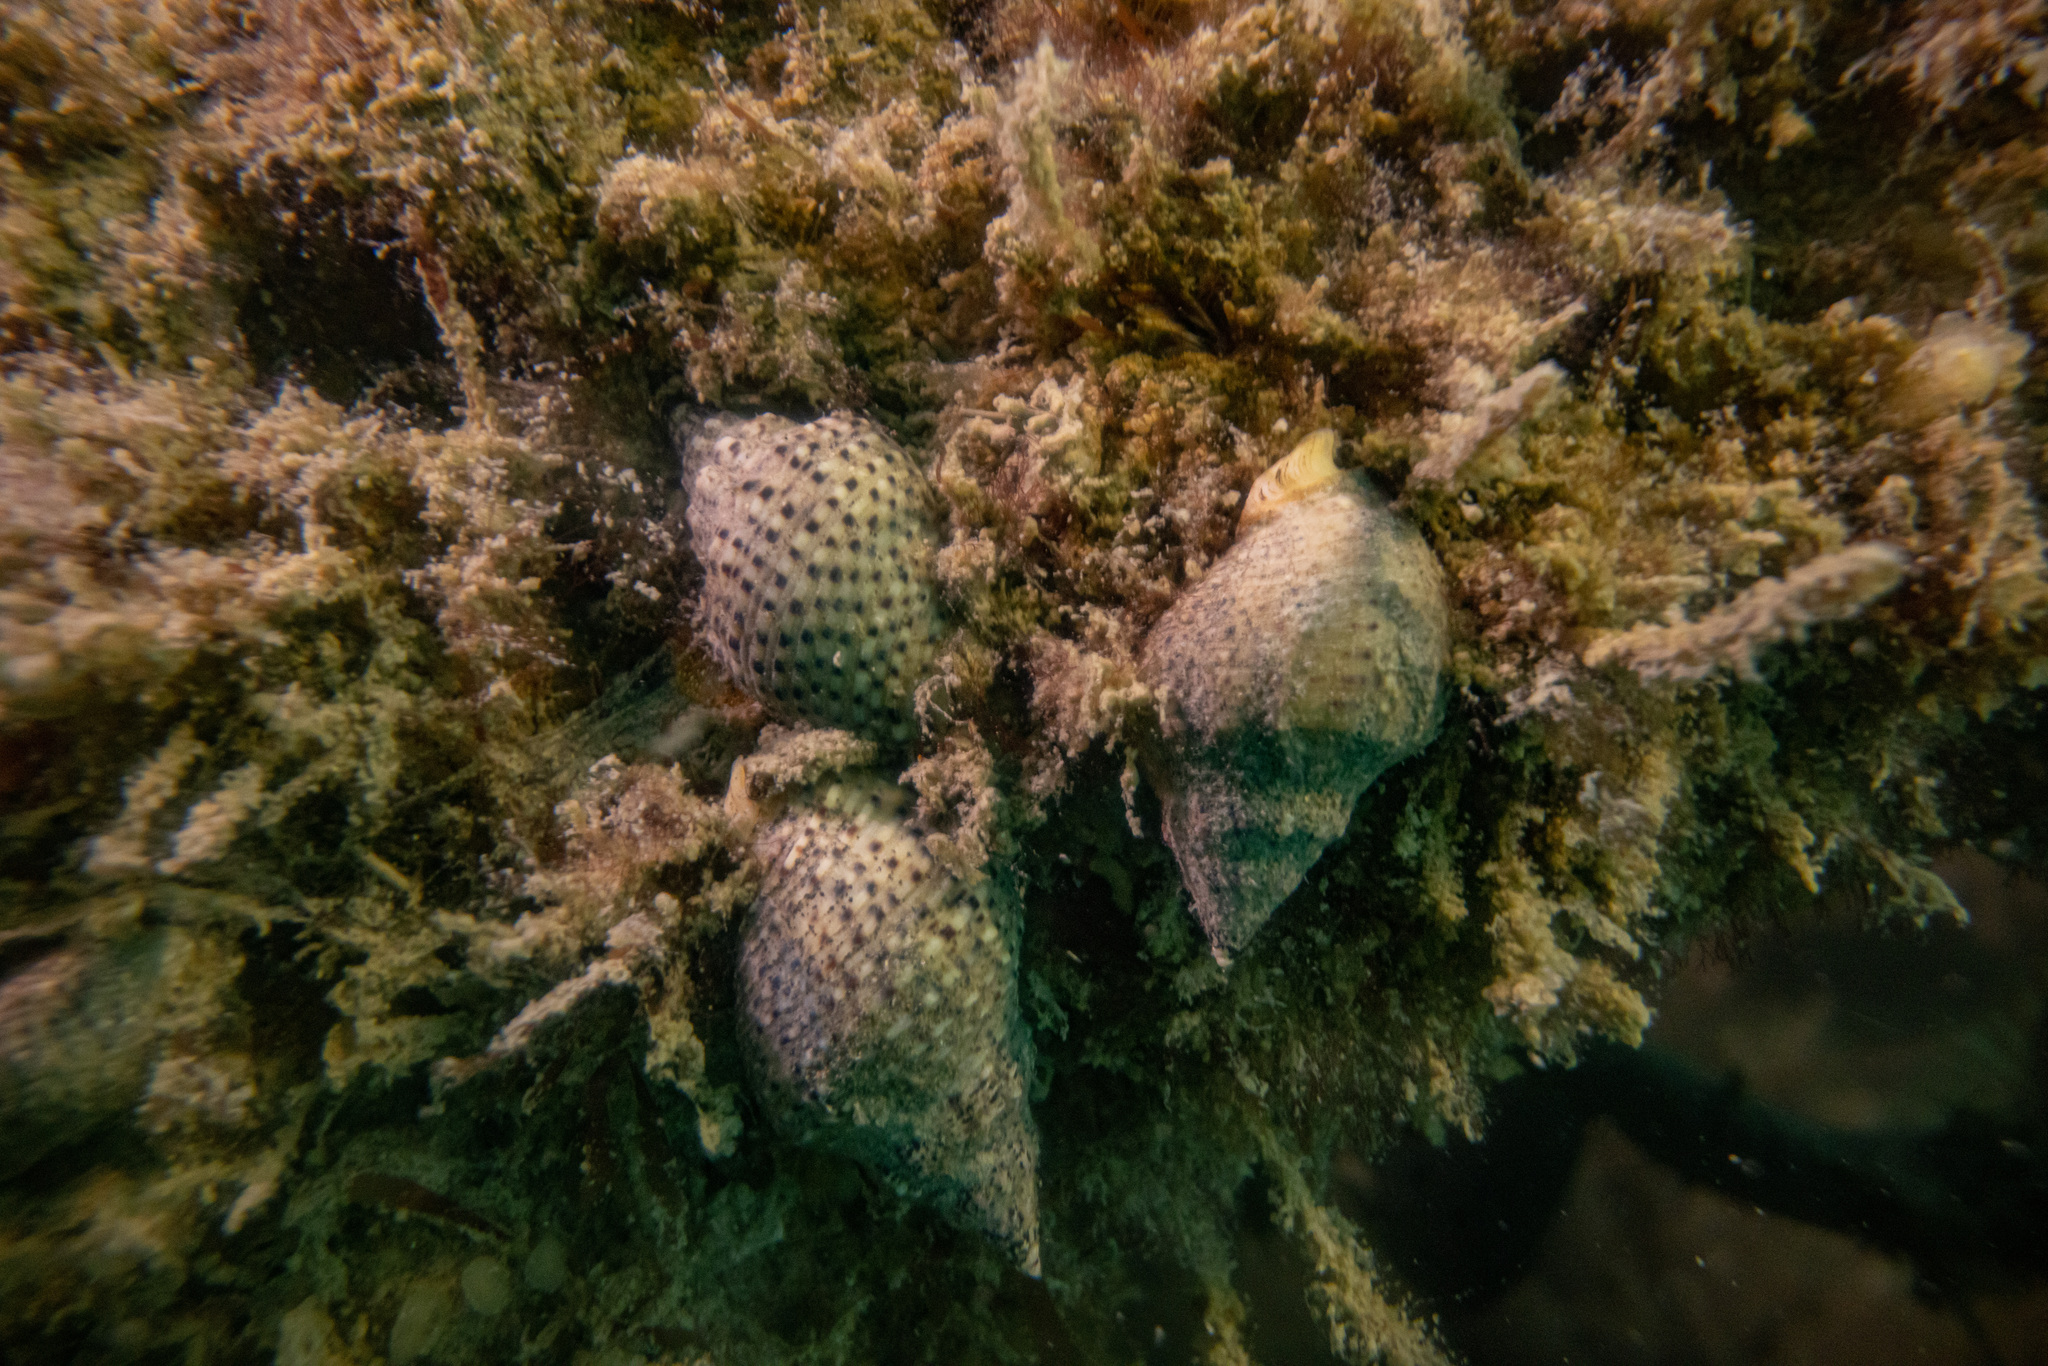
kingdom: Animalia
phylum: Mollusca
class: Gastropoda
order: Neogastropoda
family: Cominellidae
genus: Cominella
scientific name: Cominella adspersa
